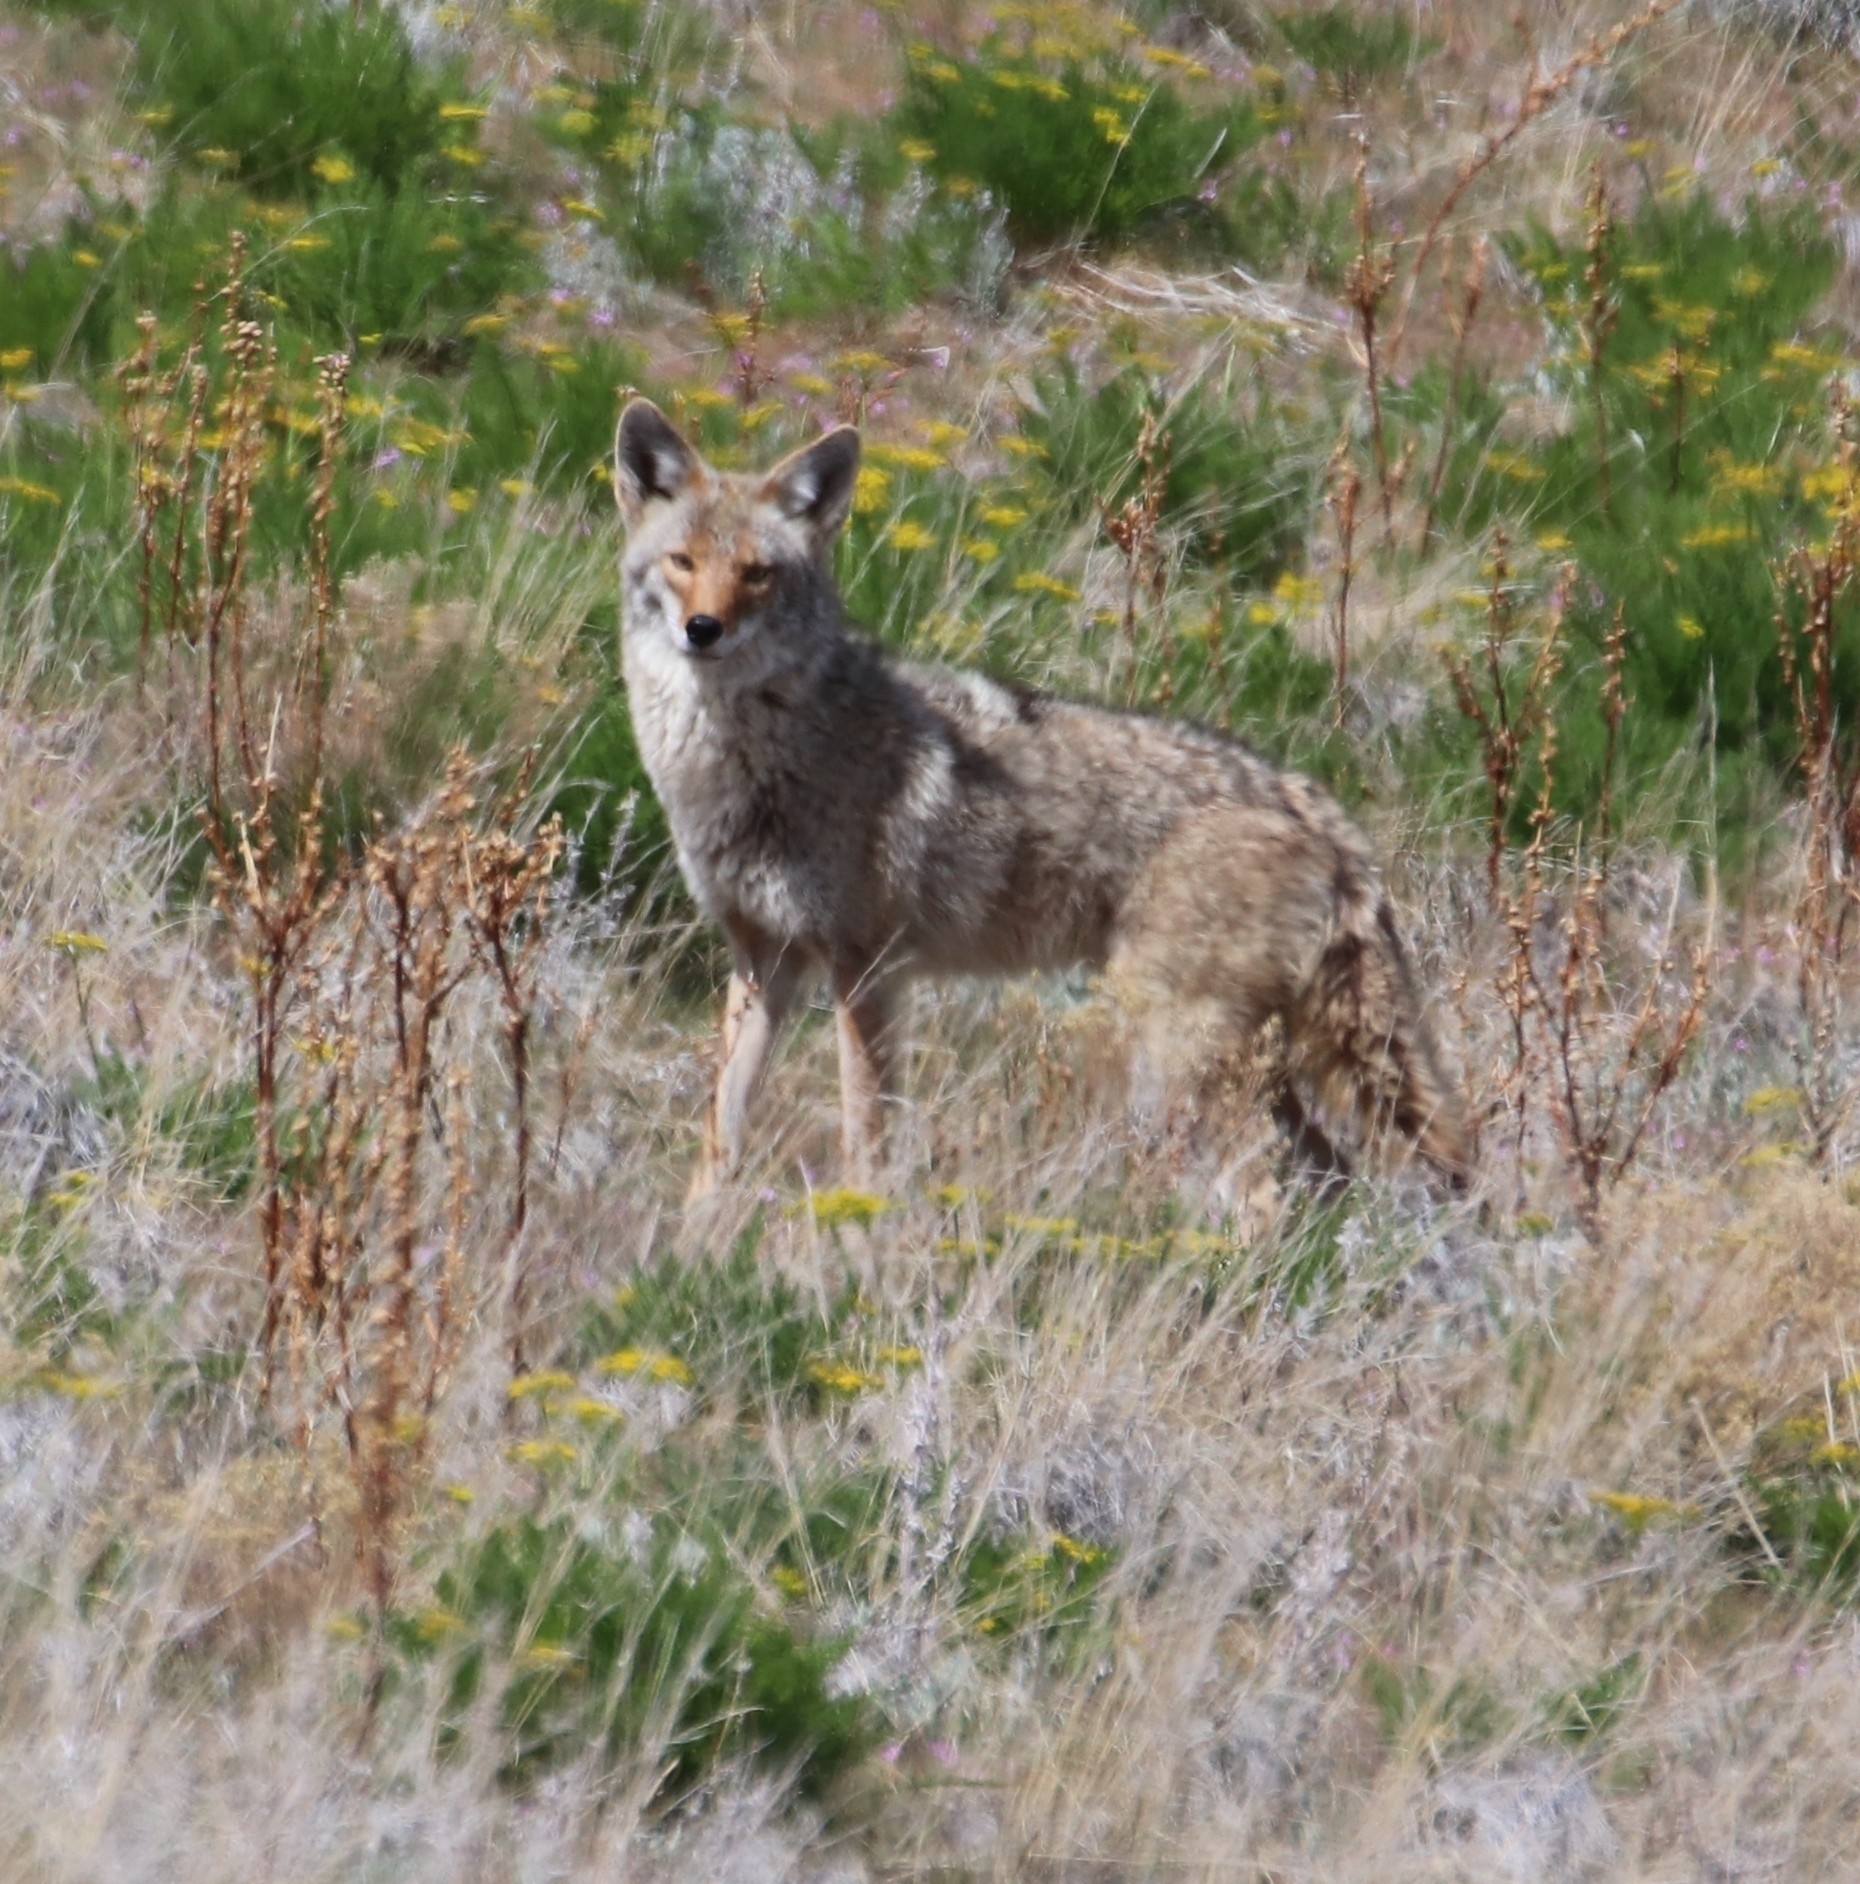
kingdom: Animalia
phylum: Chordata
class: Mammalia
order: Carnivora
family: Canidae
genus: Canis
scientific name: Canis latrans
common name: Coyote
